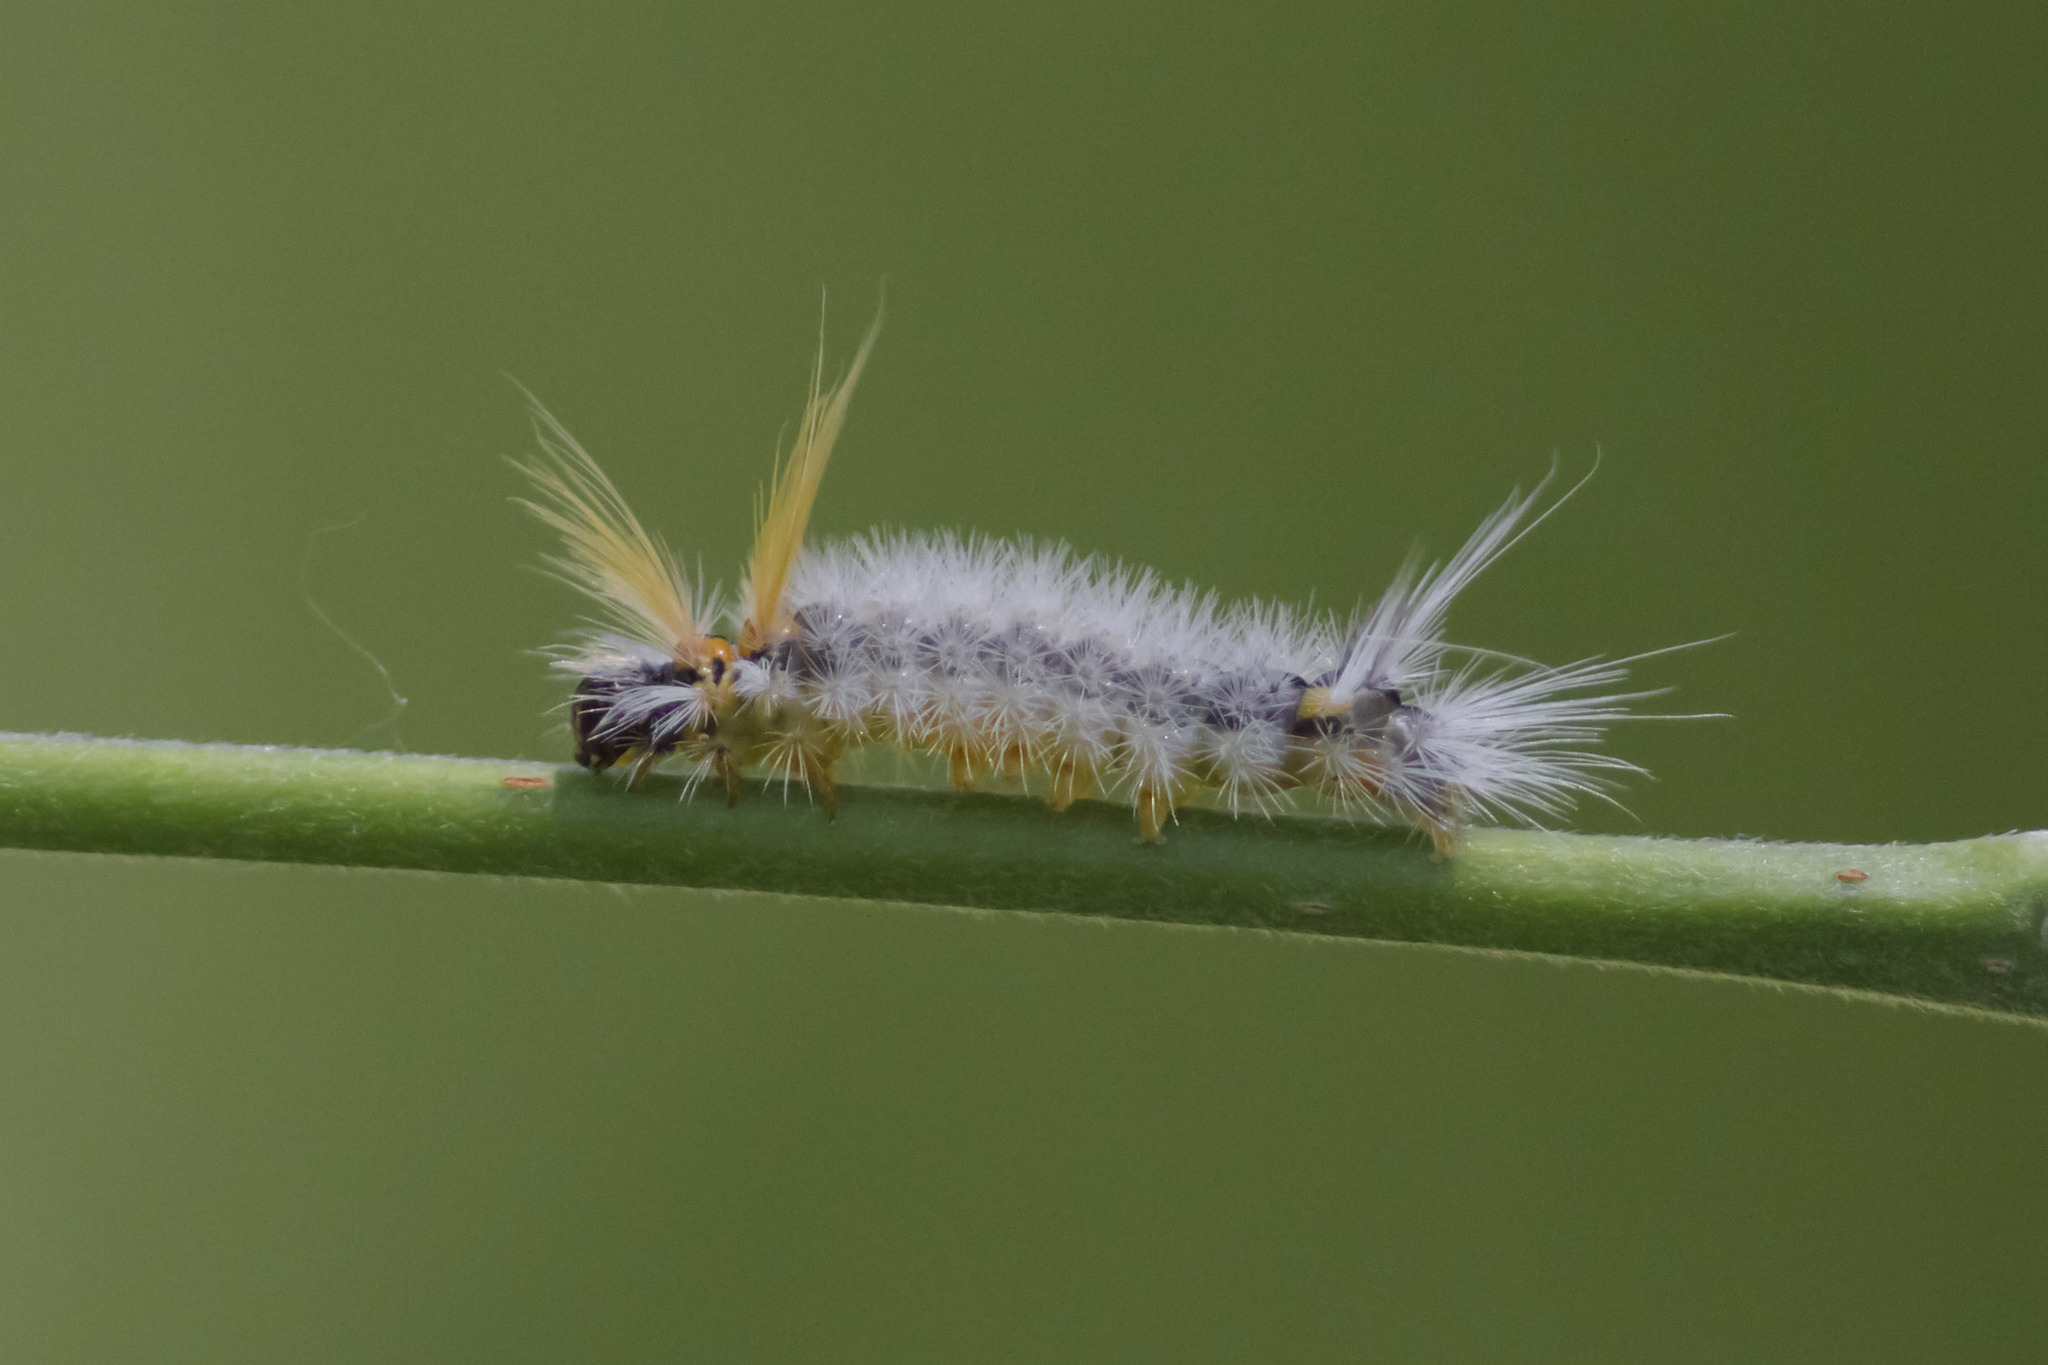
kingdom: Animalia
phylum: Arthropoda
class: Insecta
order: Lepidoptera
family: Erebidae
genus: Halysidota
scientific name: Halysidota ruscheweyhi
